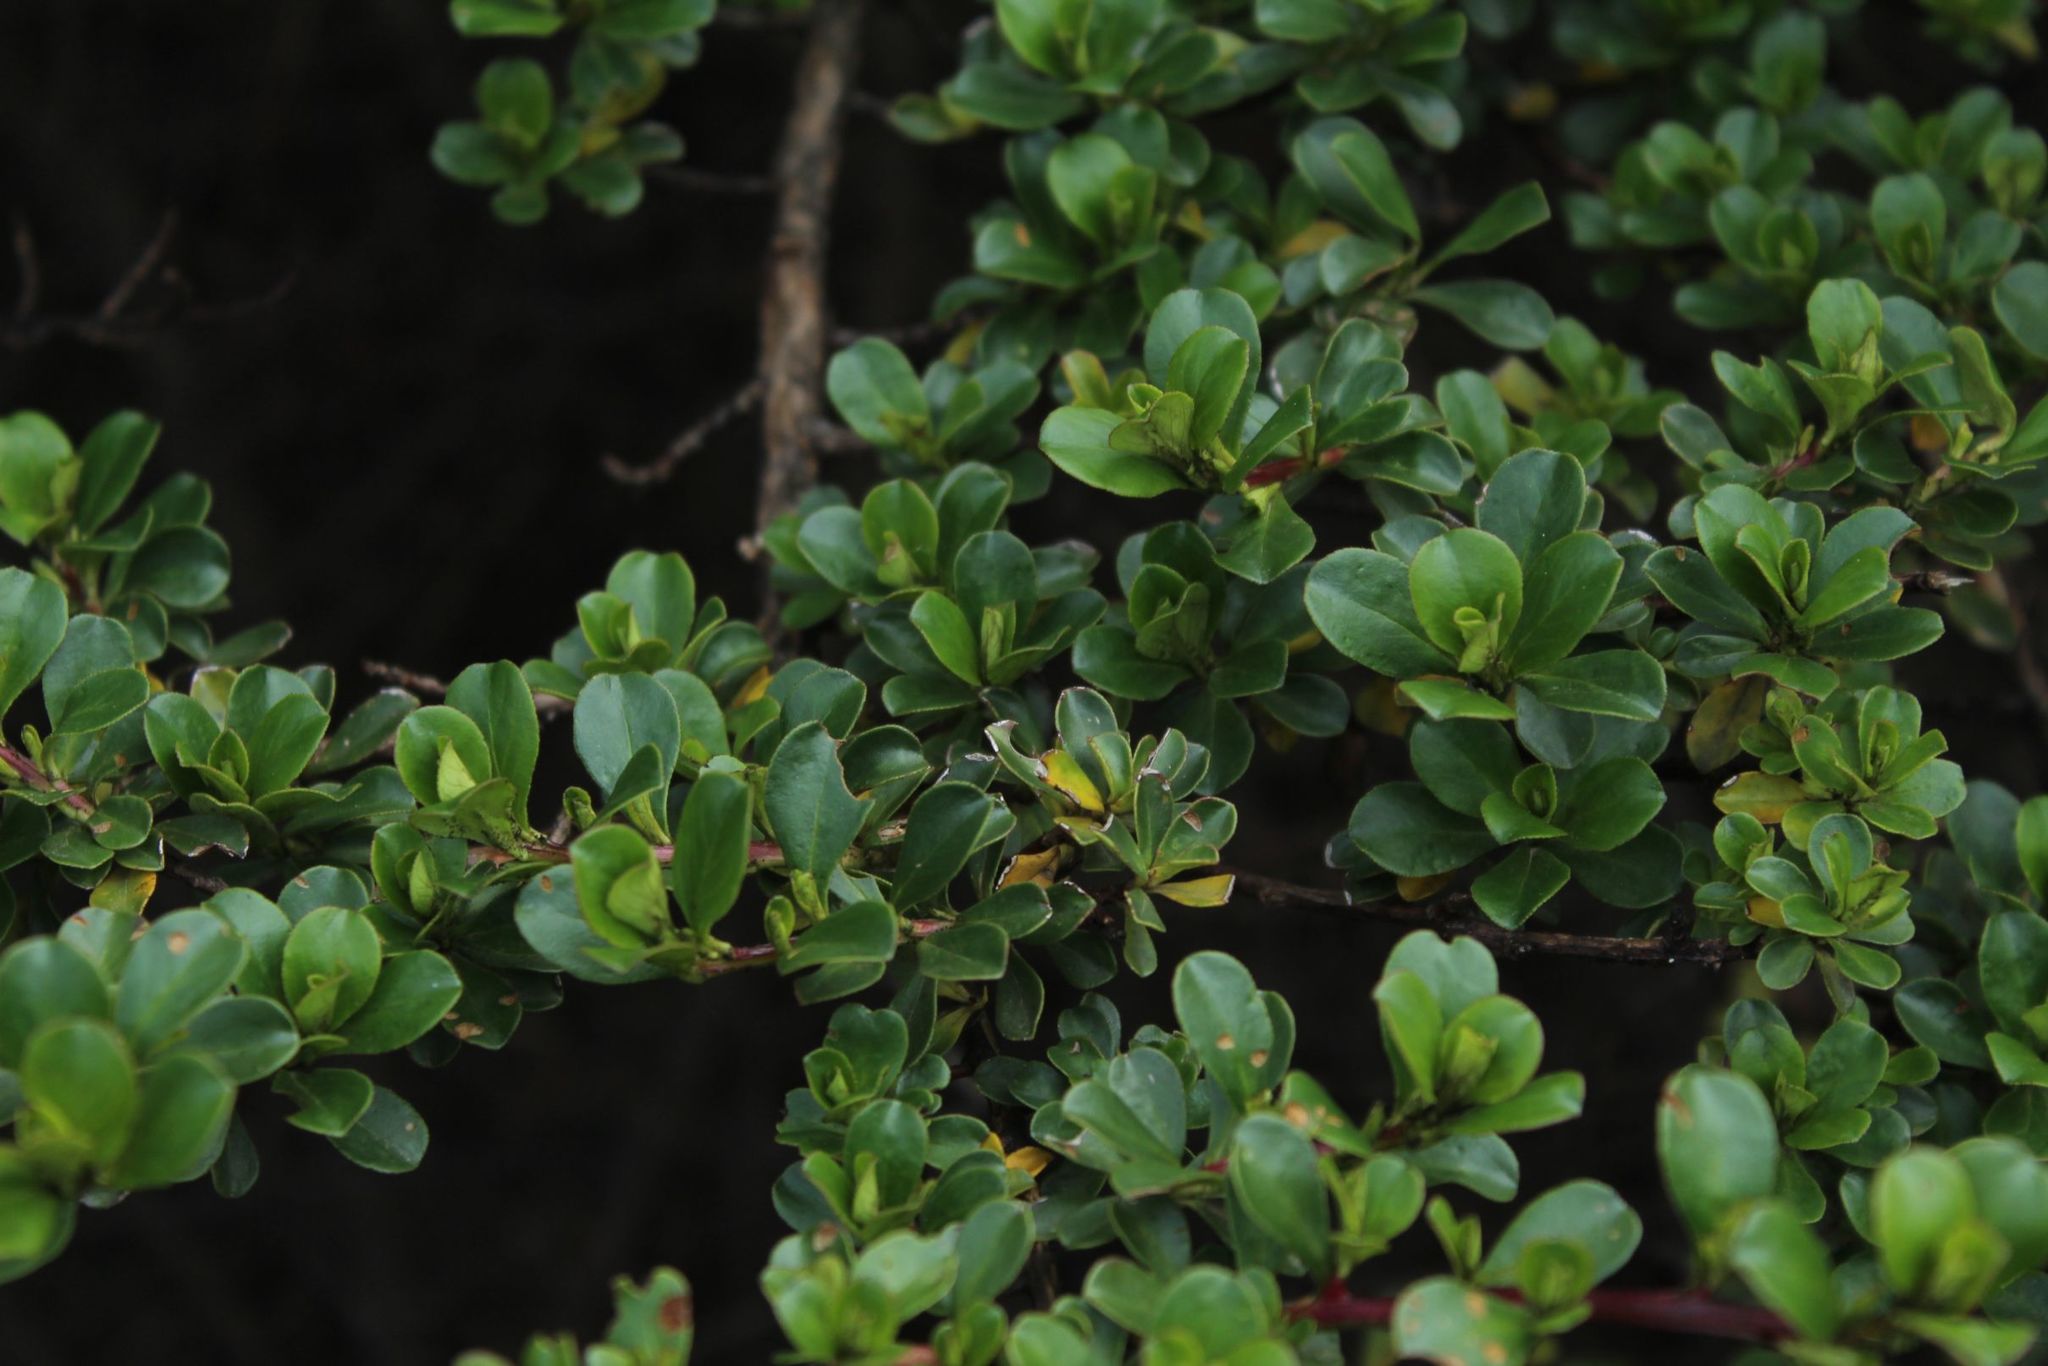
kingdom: Plantae
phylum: Tracheophyta
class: Magnoliopsida
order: Escalloniales
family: Escalloniaceae
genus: Escallonia
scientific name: Escallonia myrtilloides
